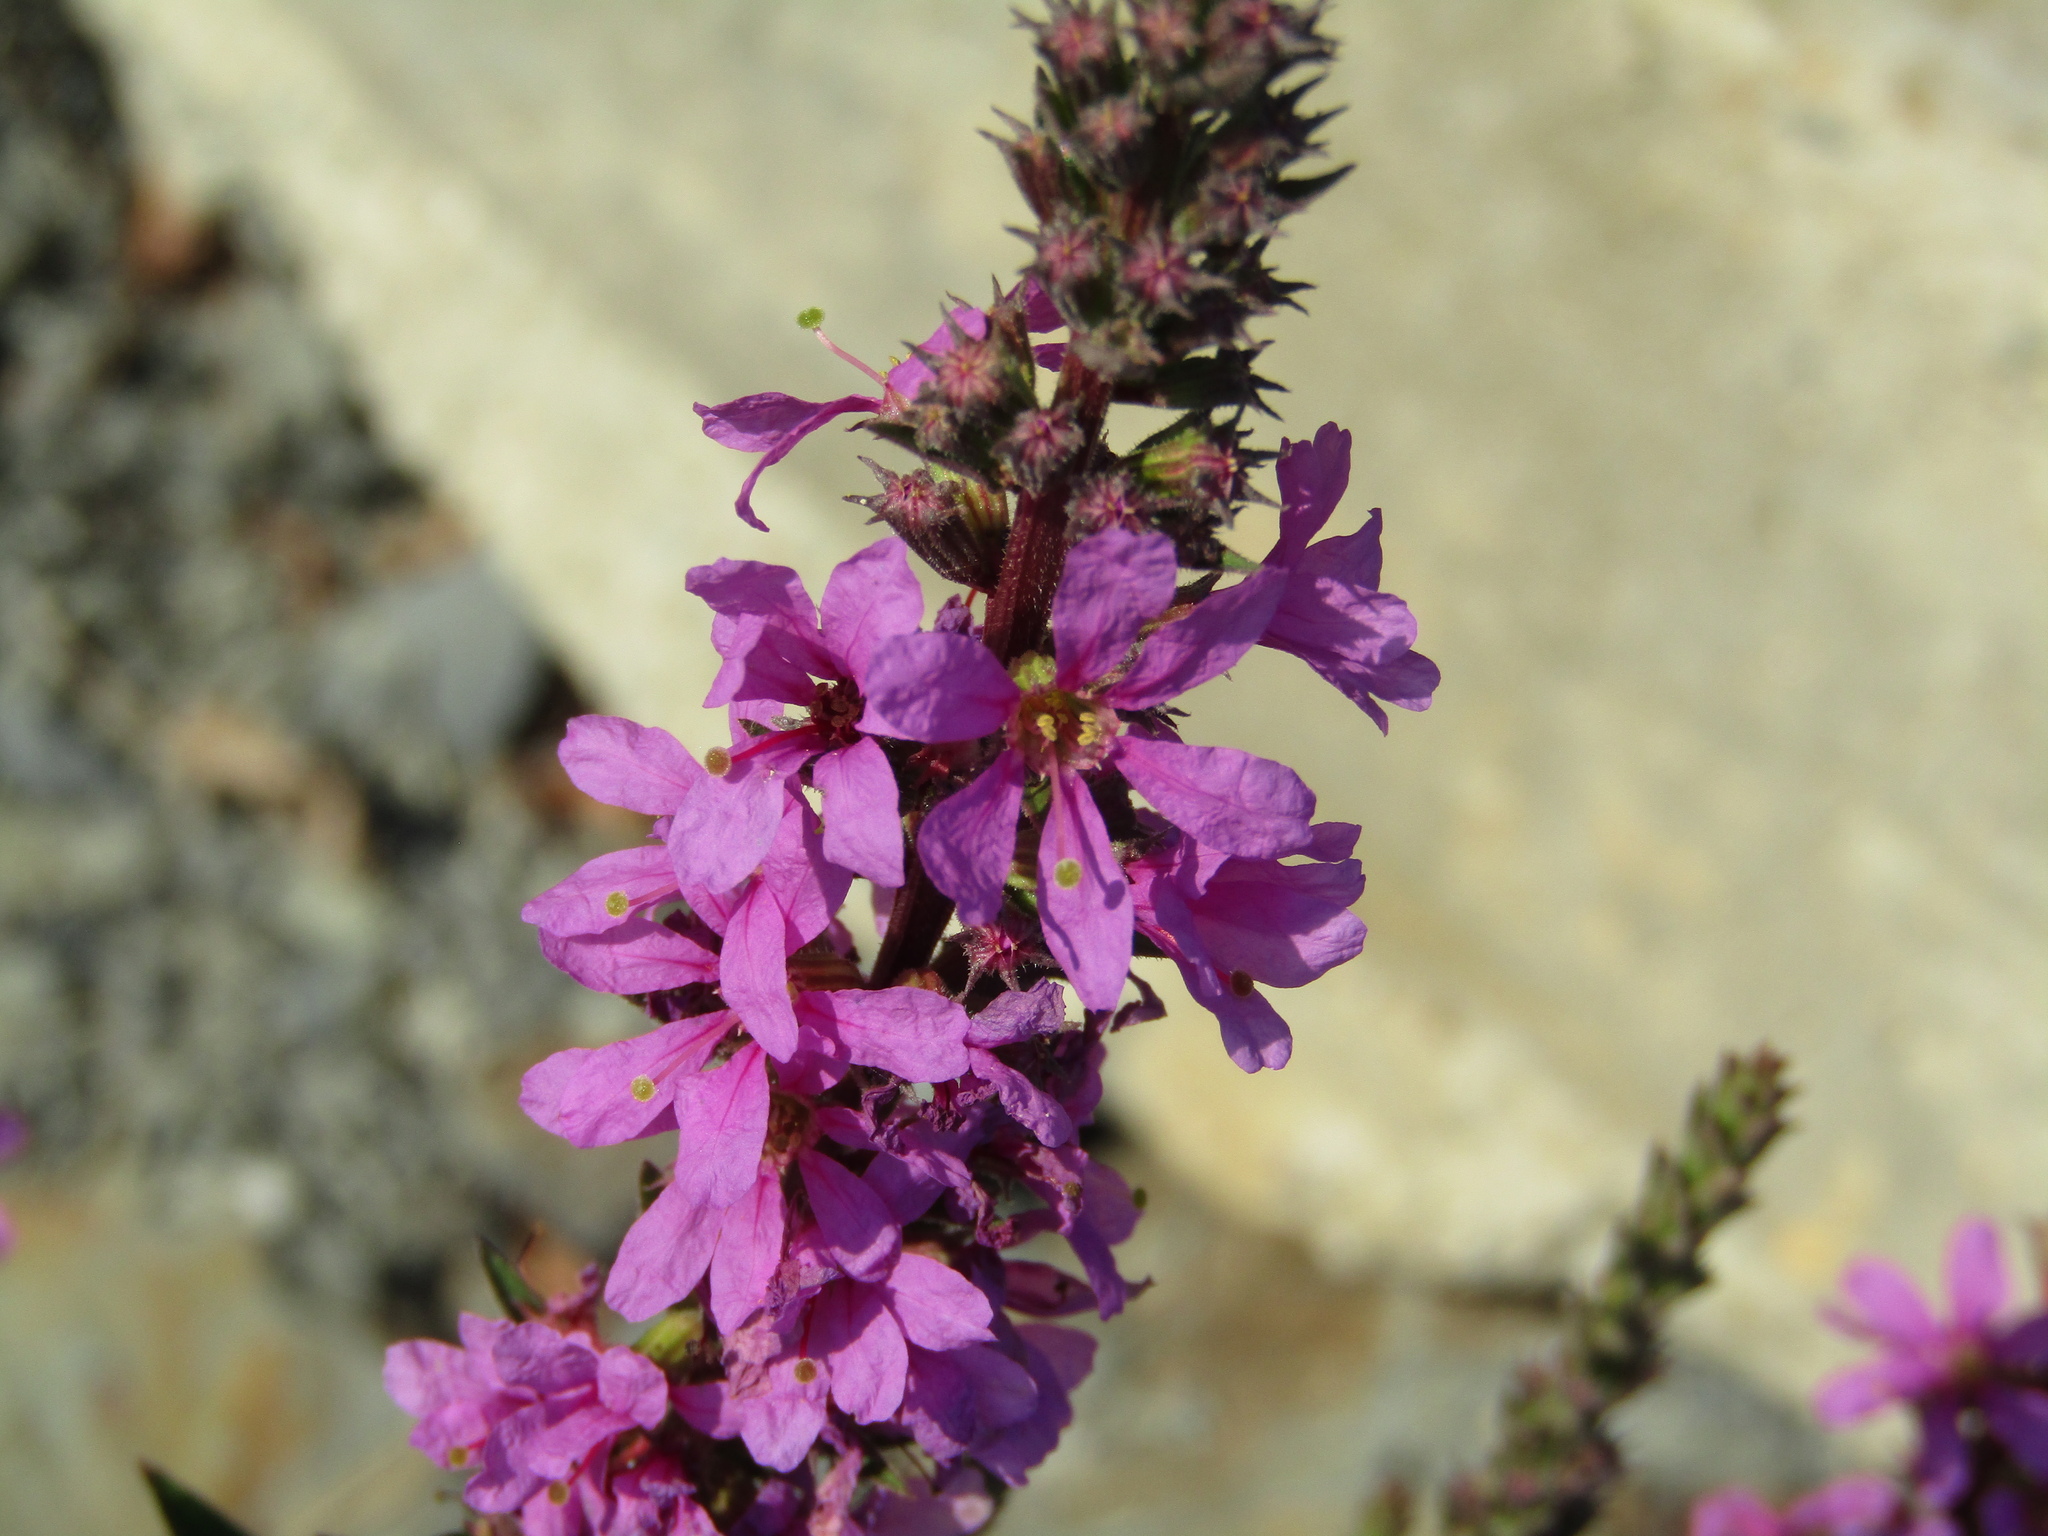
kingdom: Plantae
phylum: Tracheophyta
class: Magnoliopsida
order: Myrtales
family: Lythraceae
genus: Lythrum
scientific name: Lythrum salicaria
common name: Purple loosestrife
